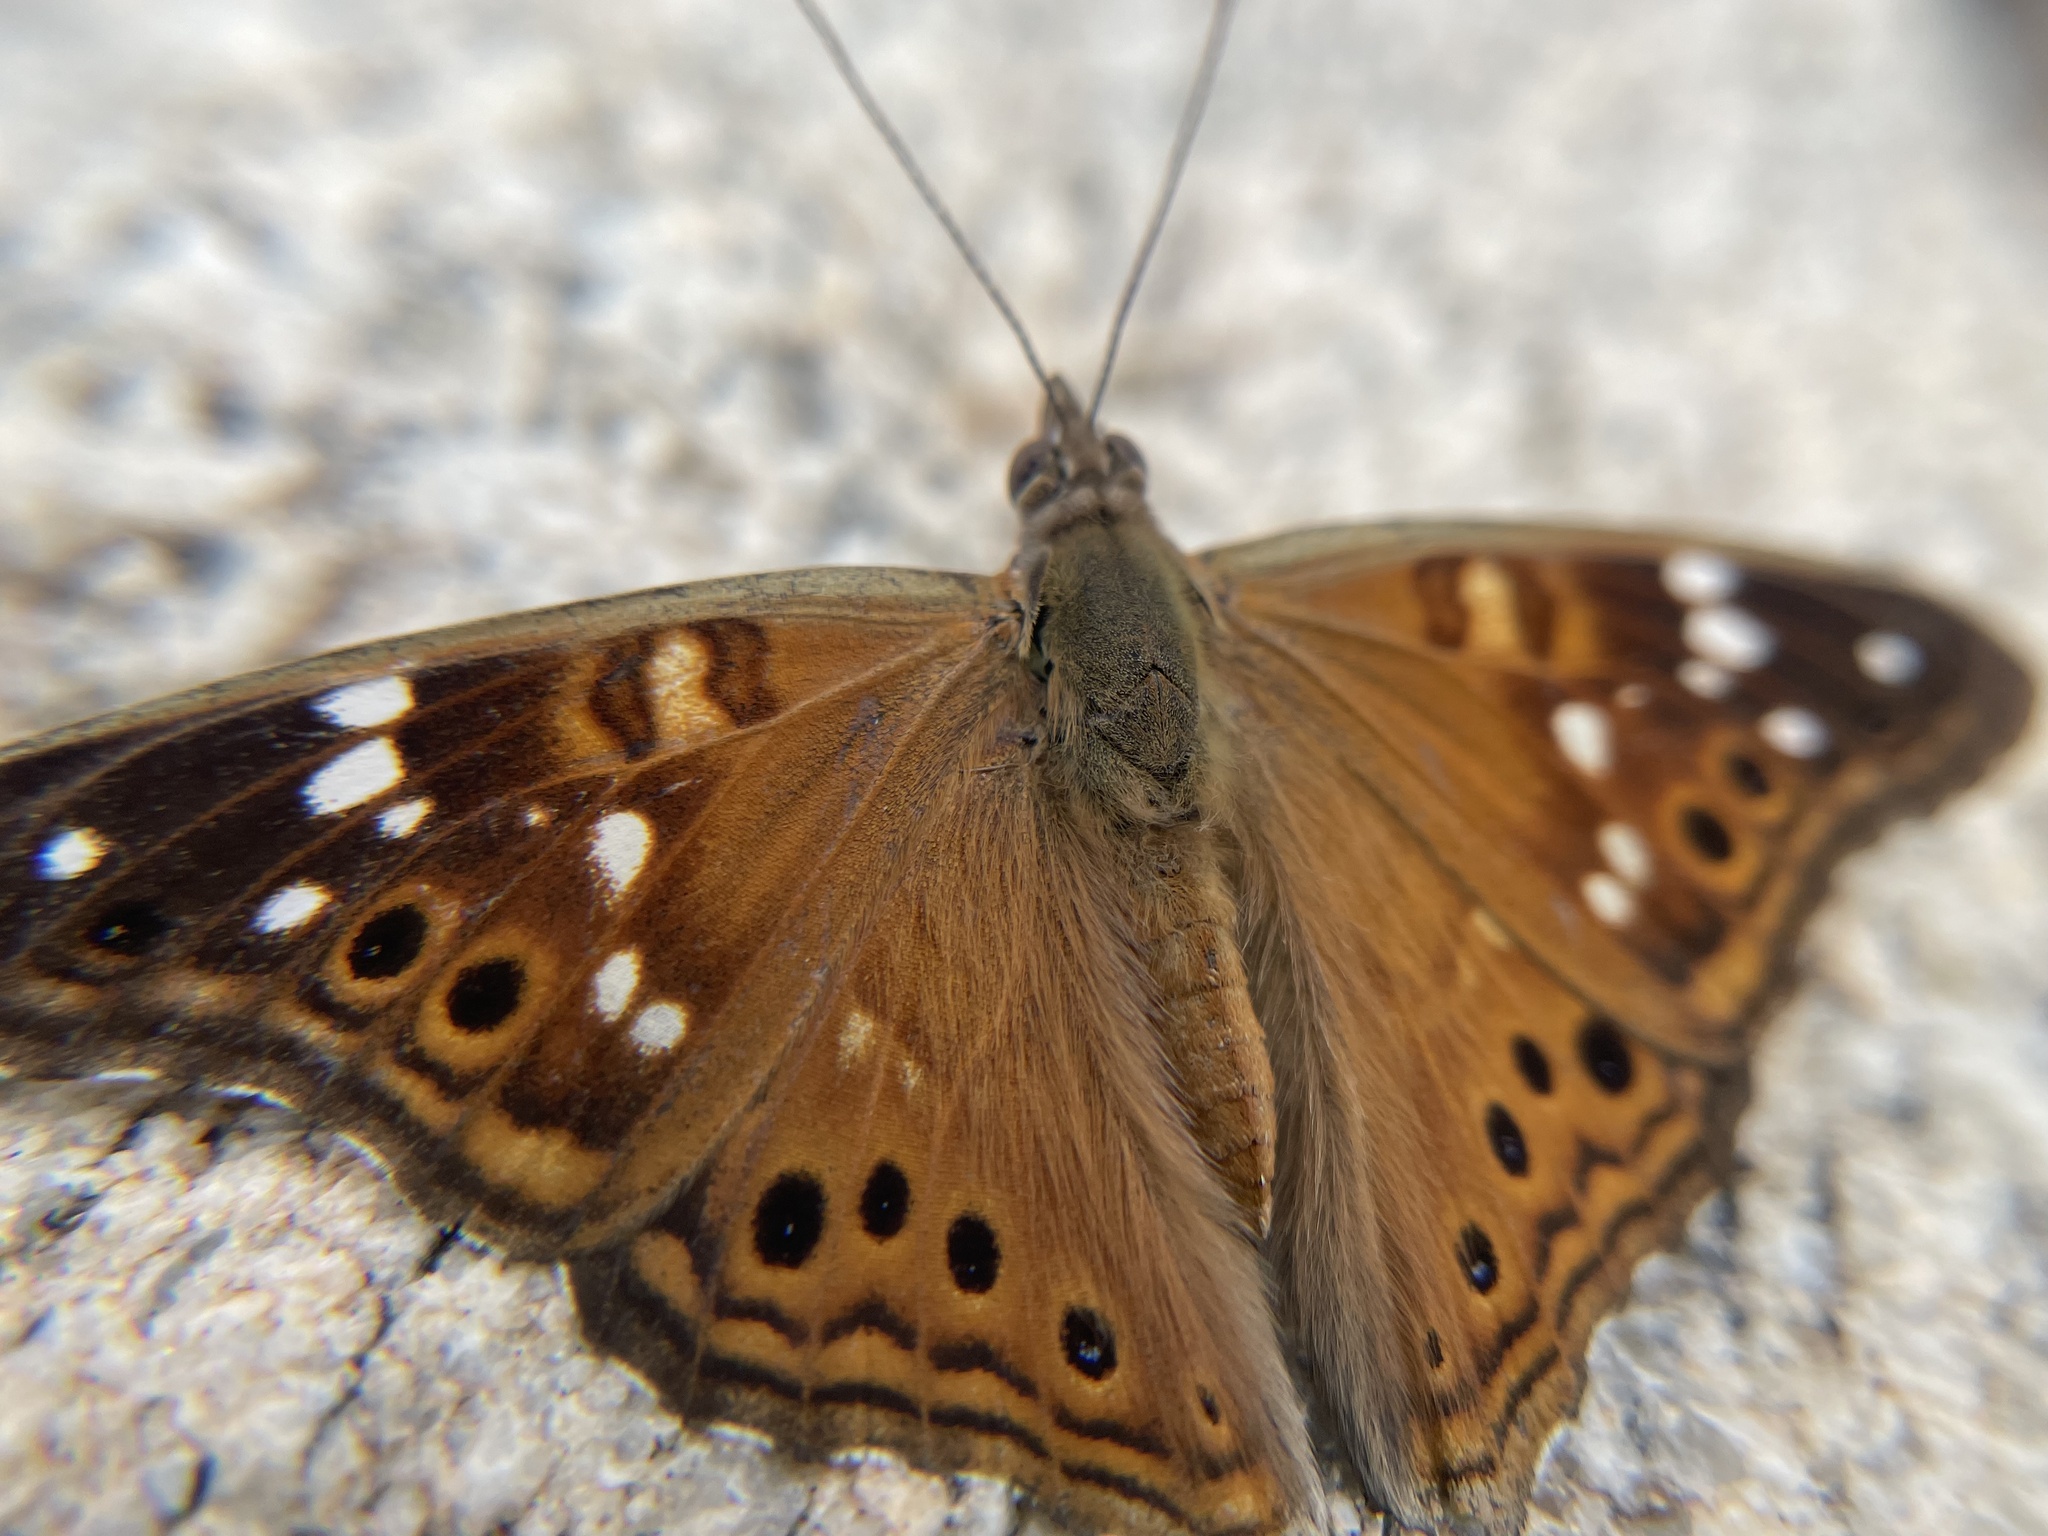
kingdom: Animalia
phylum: Arthropoda
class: Insecta
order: Lepidoptera
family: Nymphalidae
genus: Asterocampa
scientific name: Asterocampa leilia
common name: Empress leilia
